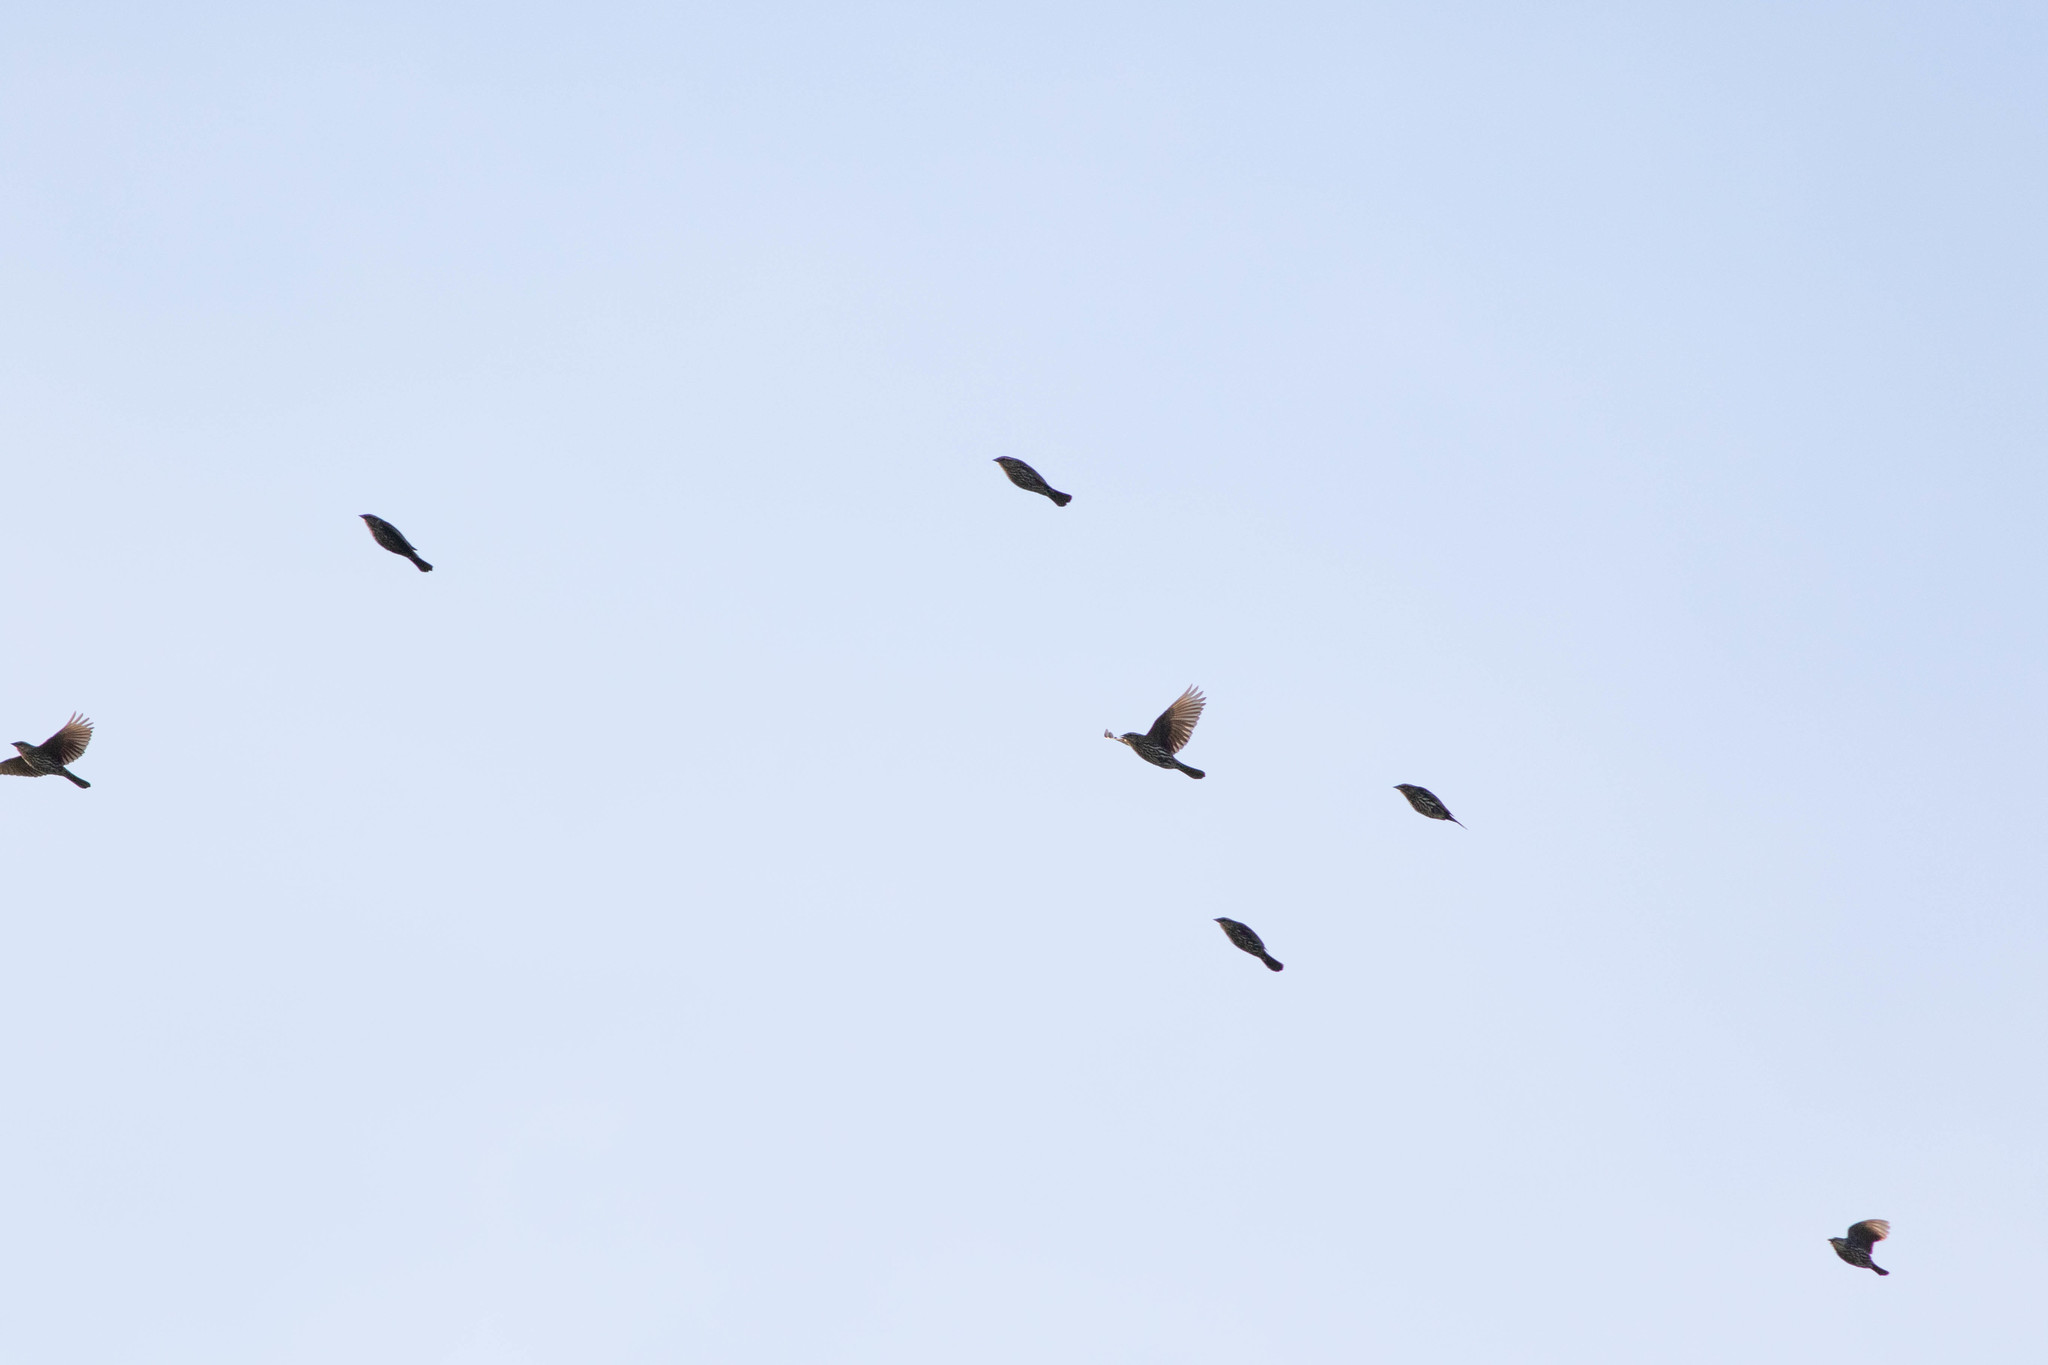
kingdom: Animalia
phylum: Chordata
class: Aves
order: Passeriformes
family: Icteridae
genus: Agelaius
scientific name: Agelaius phoeniceus
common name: Red-winged blackbird
